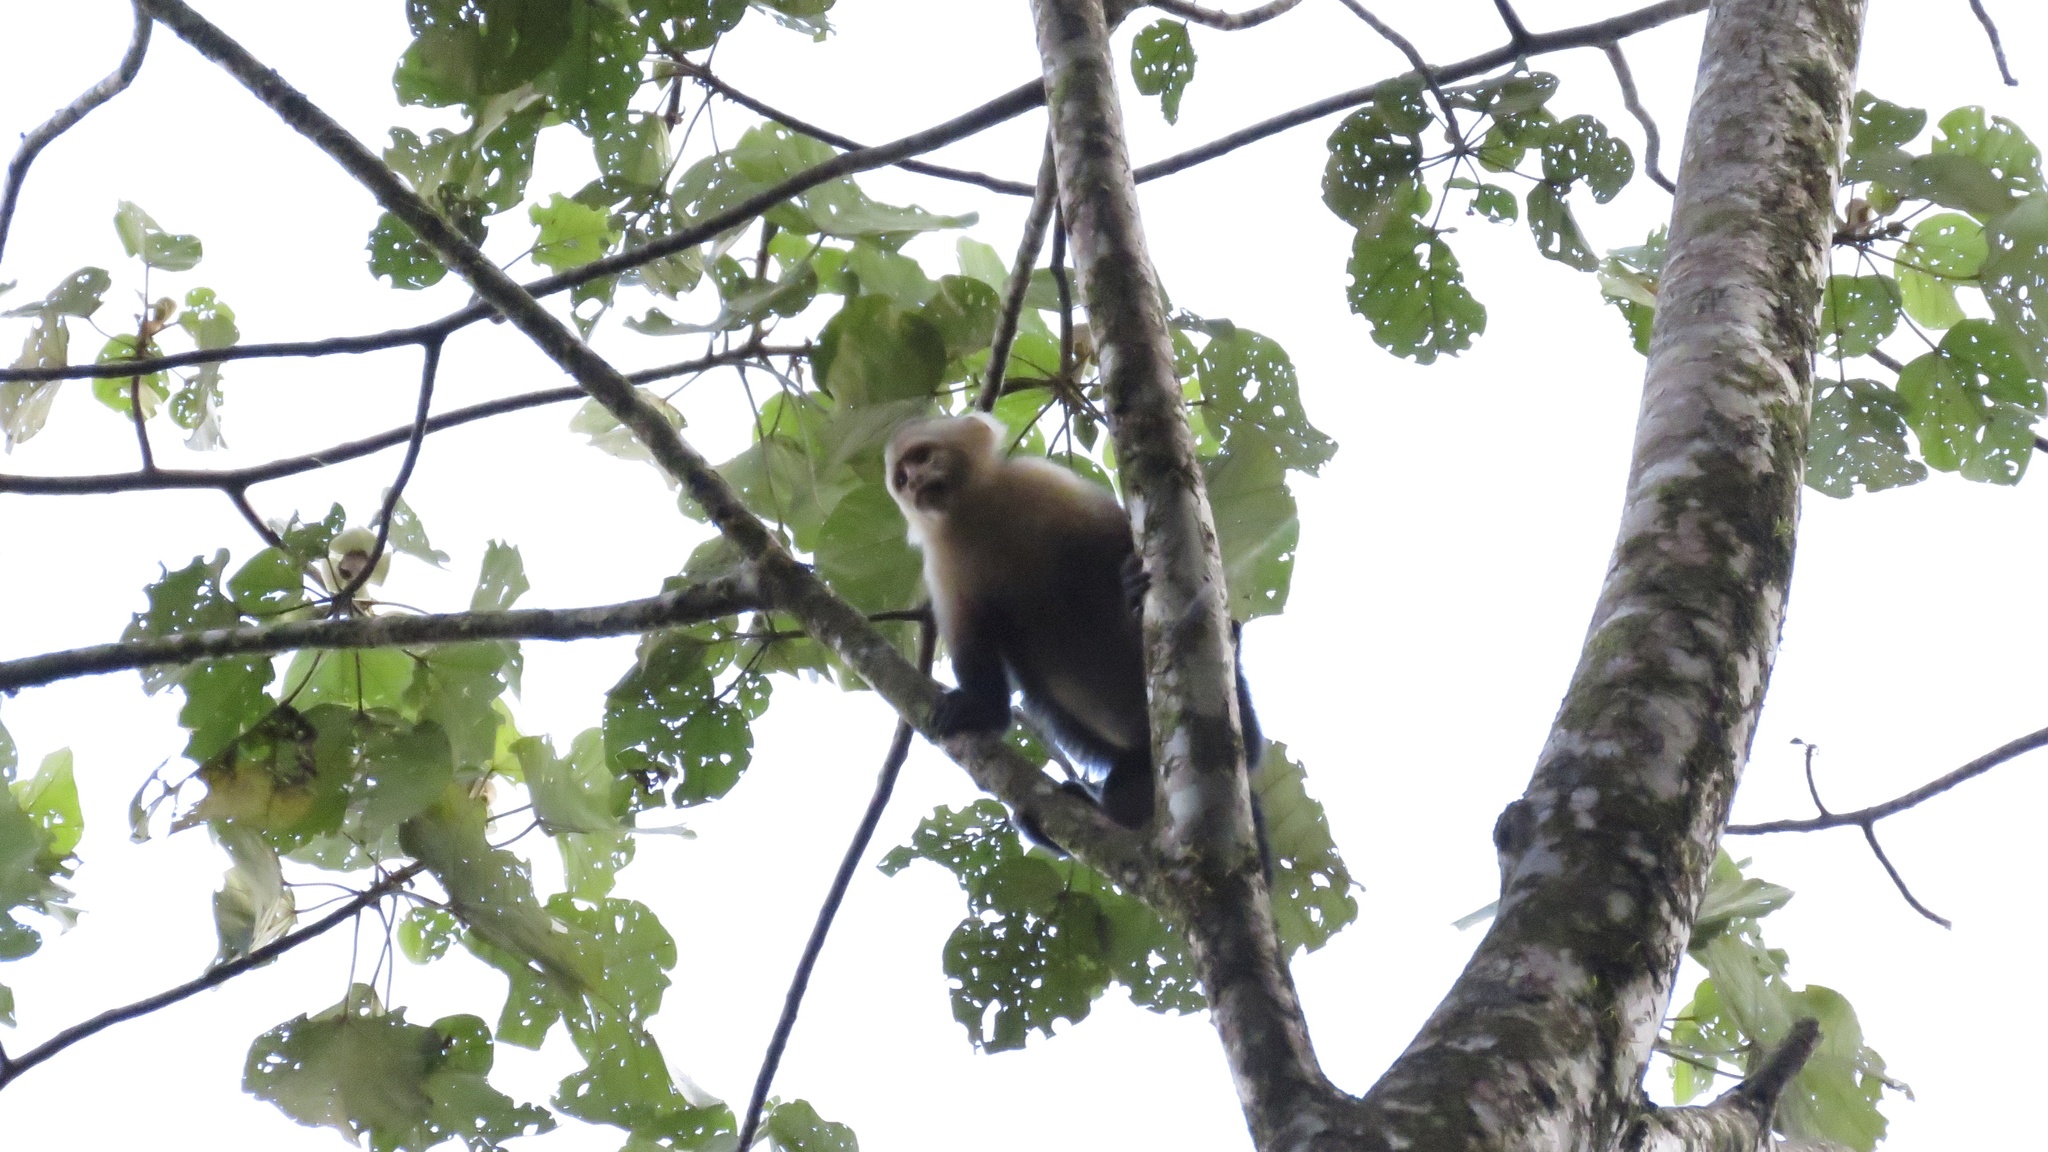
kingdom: Animalia
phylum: Chordata
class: Mammalia
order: Primates
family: Cebidae
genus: Cebus
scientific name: Cebus imitator
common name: Panamanian white-faced capuchin
